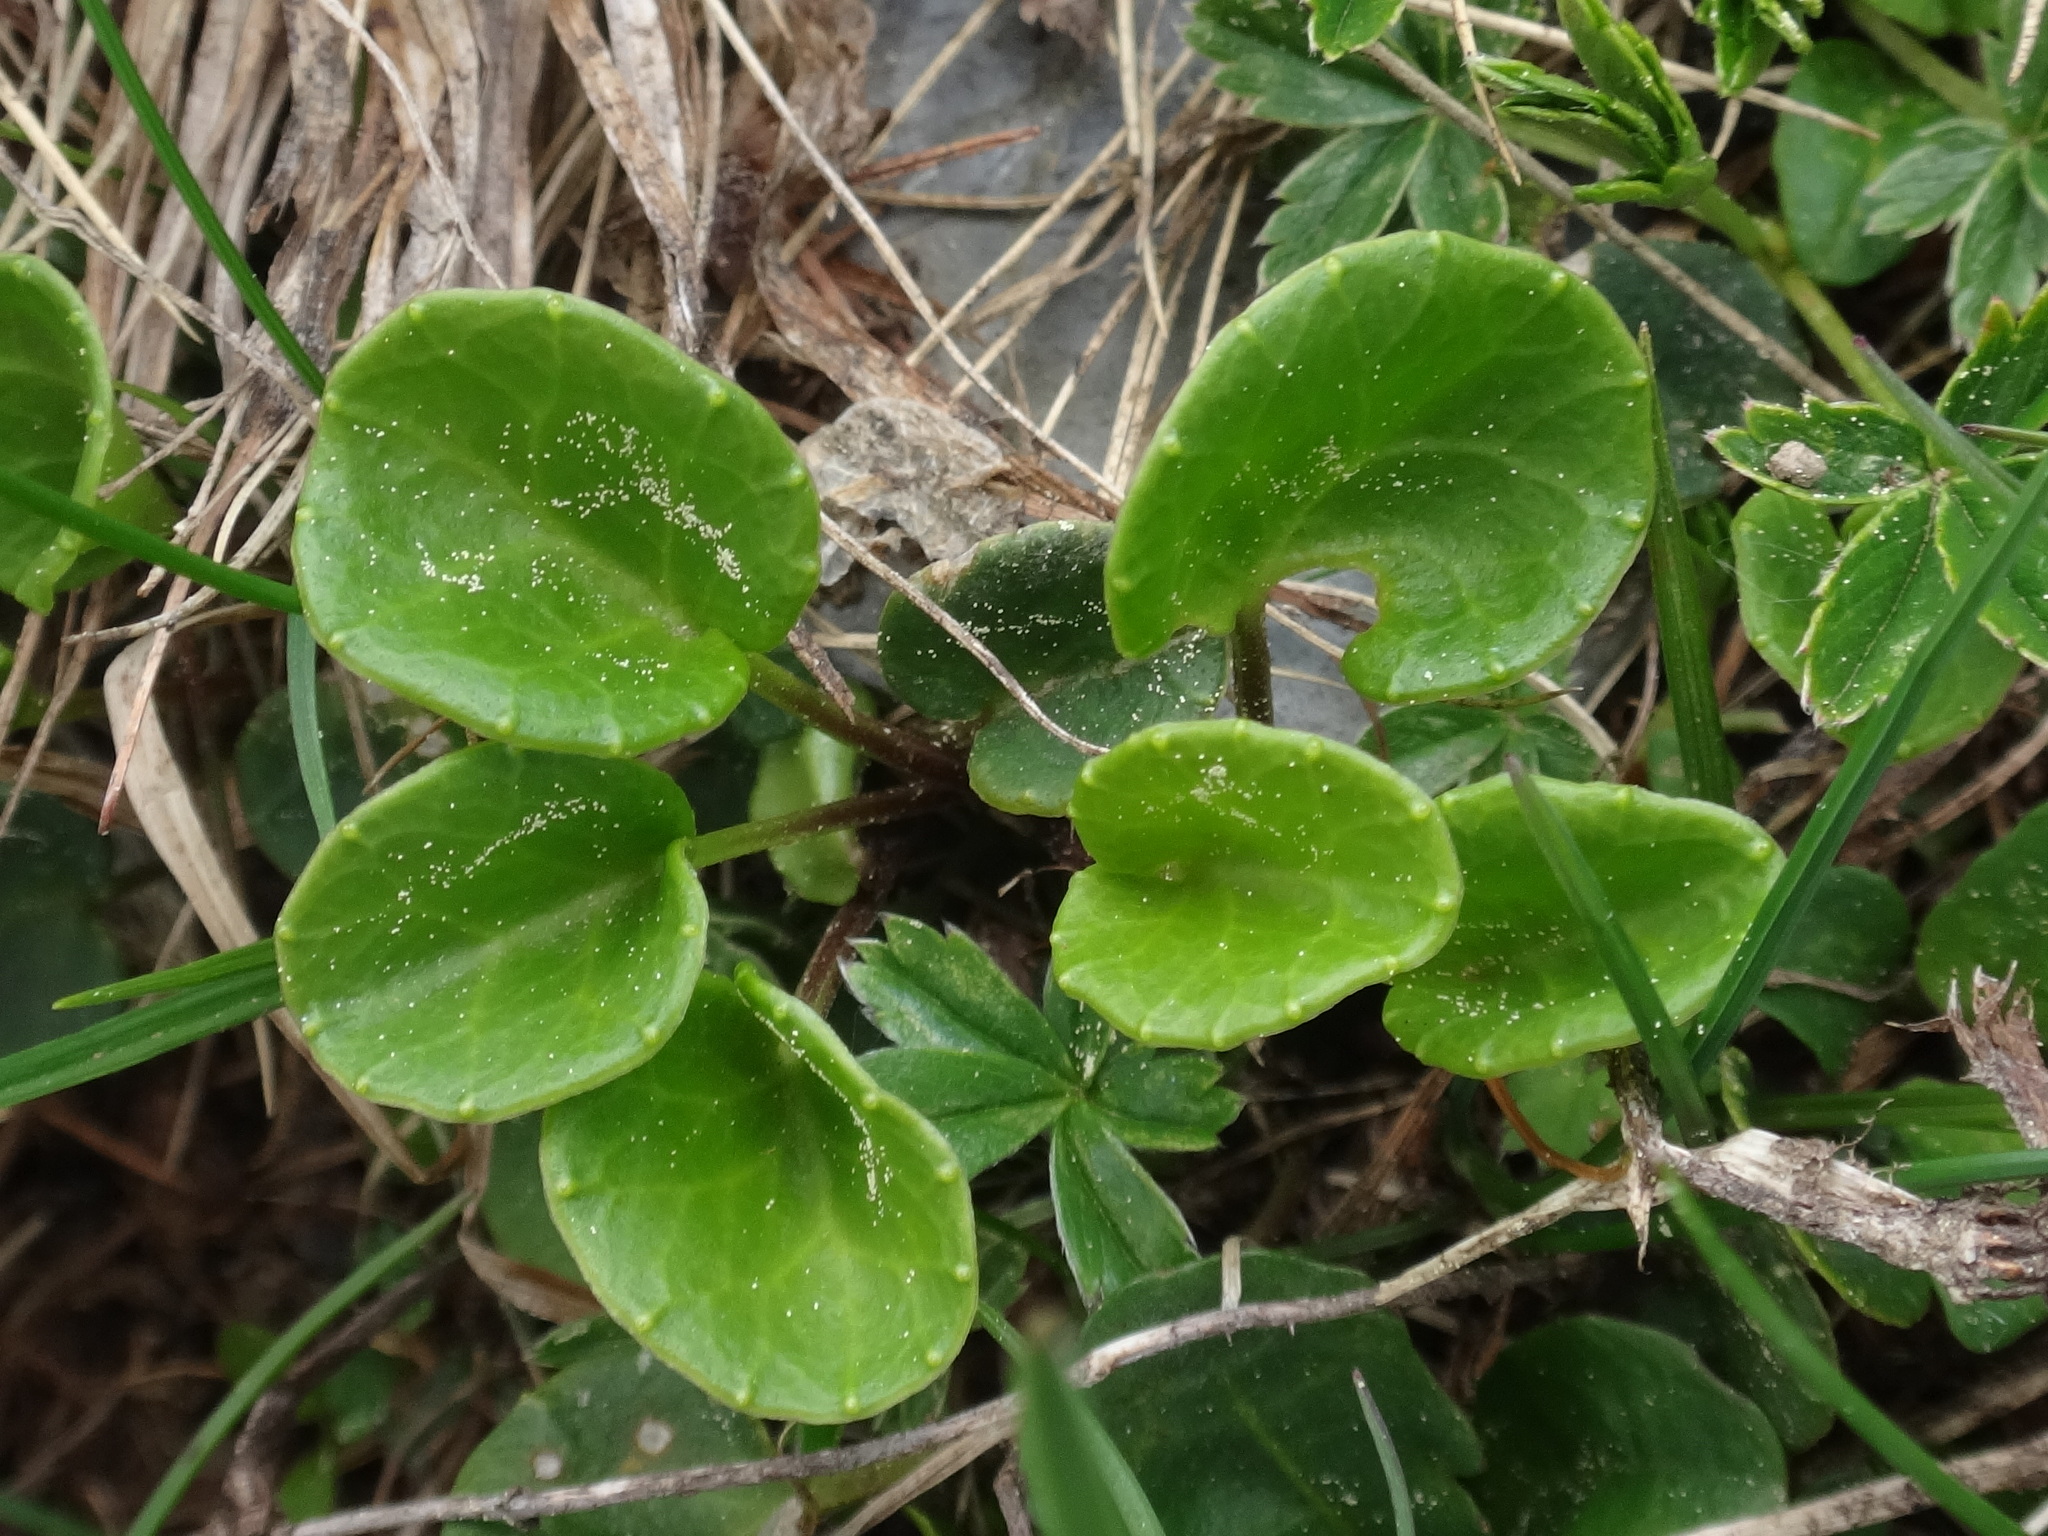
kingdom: Plantae
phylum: Tracheophyta
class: Magnoliopsida
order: Ericales
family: Primulaceae
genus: Soldanella
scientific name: Soldanella alpina
